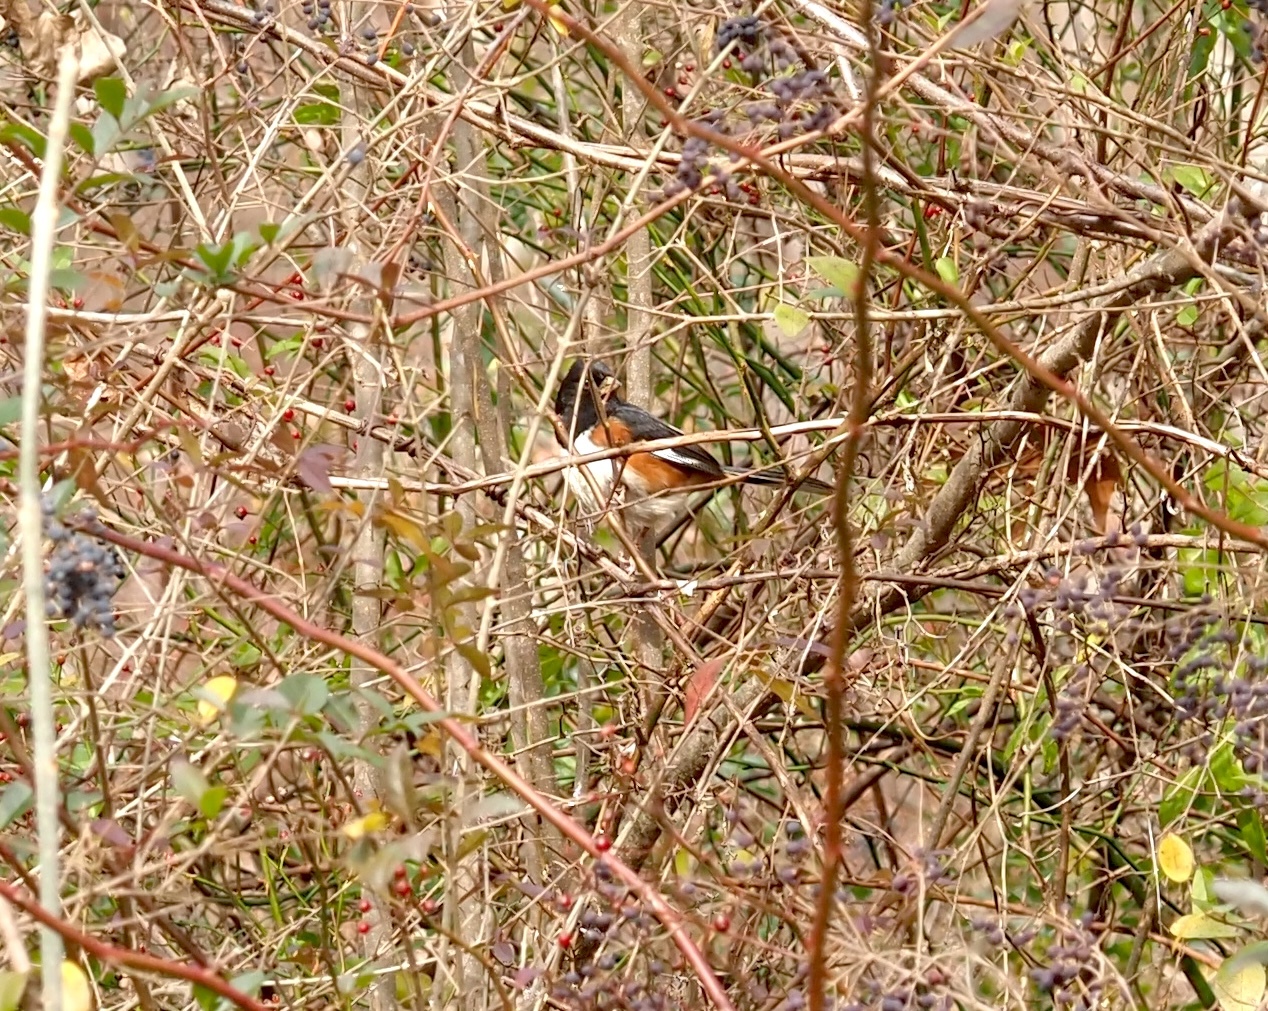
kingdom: Animalia
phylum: Chordata
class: Aves
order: Passeriformes
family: Passerellidae
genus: Pipilo
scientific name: Pipilo erythrophthalmus
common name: Eastern towhee
